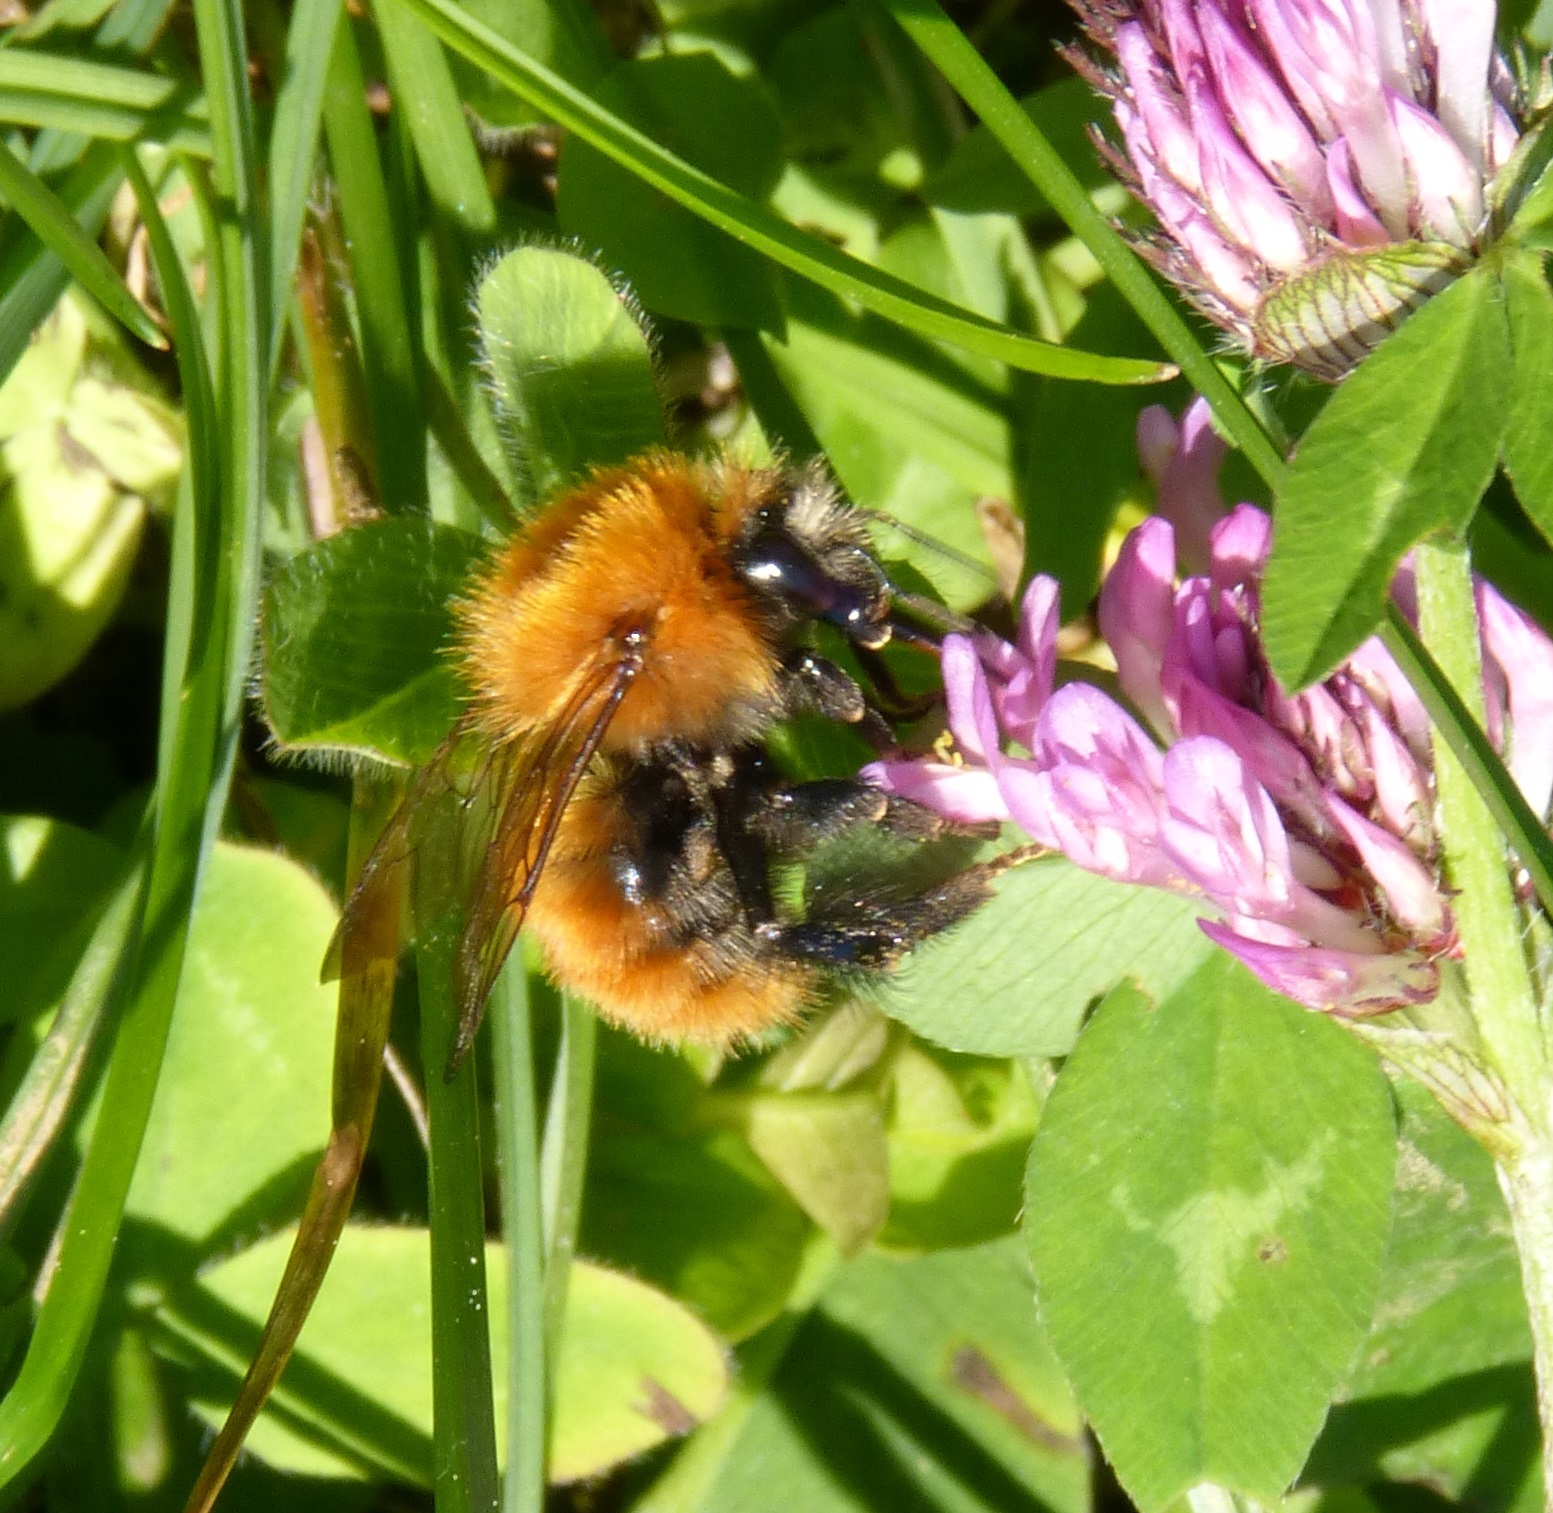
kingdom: Animalia
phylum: Arthropoda
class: Insecta
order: Hymenoptera
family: Apidae
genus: Bombus
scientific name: Bombus pascuorum
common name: Common carder bee
